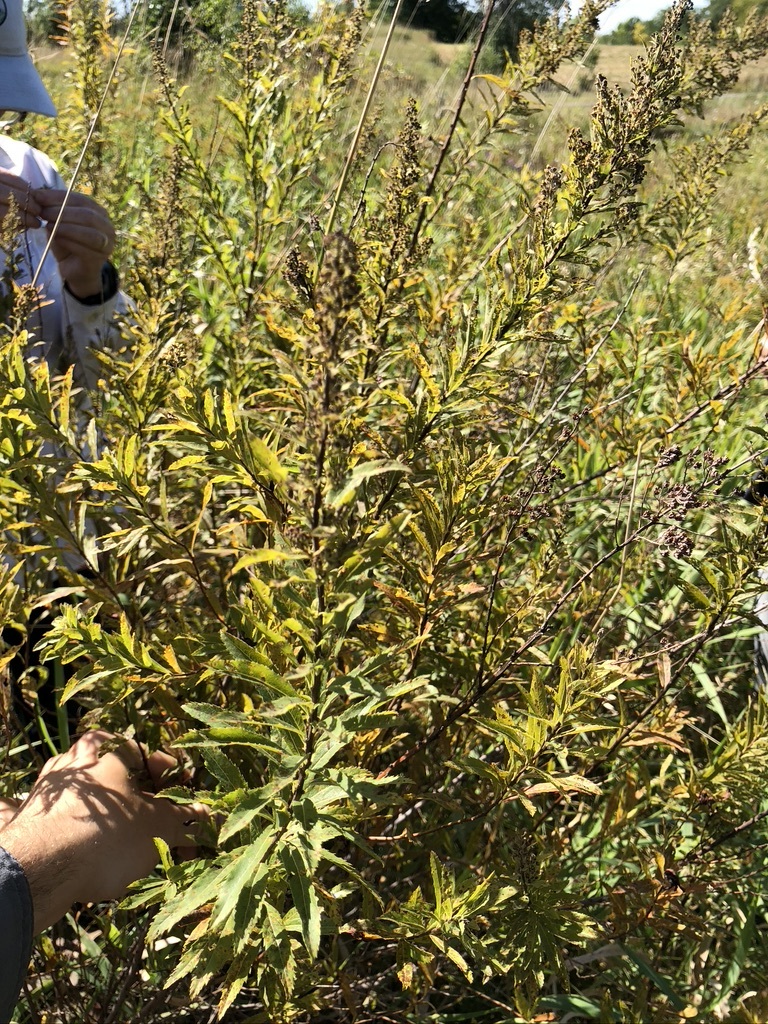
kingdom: Plantae
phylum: Tracheophyta
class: Magnoliopsida
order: Rosales
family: Rosaceae
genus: Spiraea
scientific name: Spiraea alba
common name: Pale bridewort
